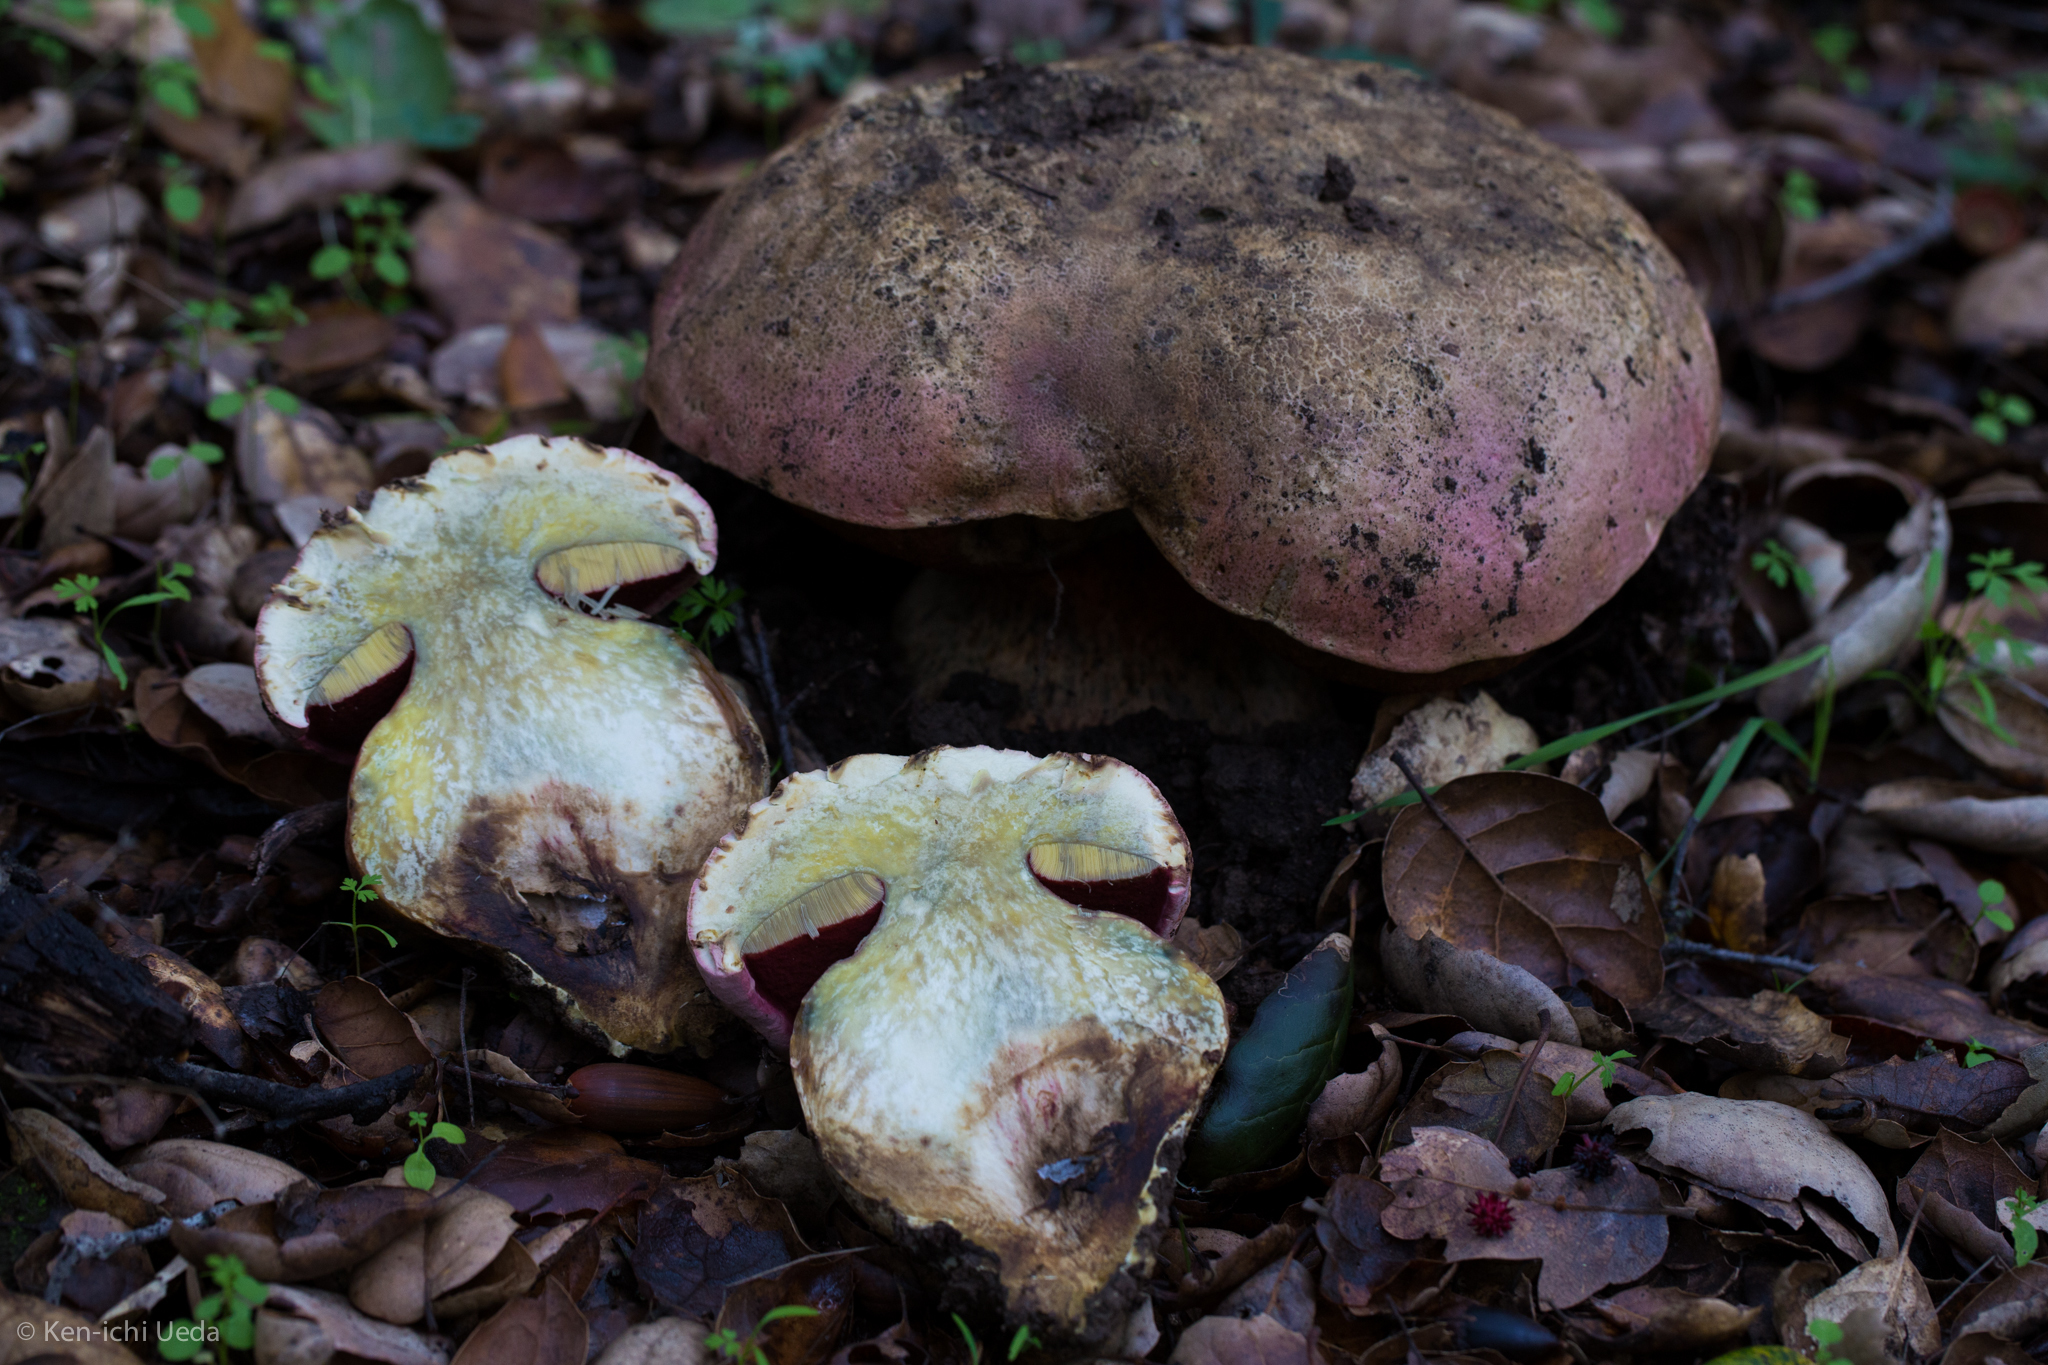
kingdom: Fungi
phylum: Basidiomycota
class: Agaricomycetes
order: Boletales
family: Boletaceae
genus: Rubroboletus
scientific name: Rubroboletus eastwoodiae
